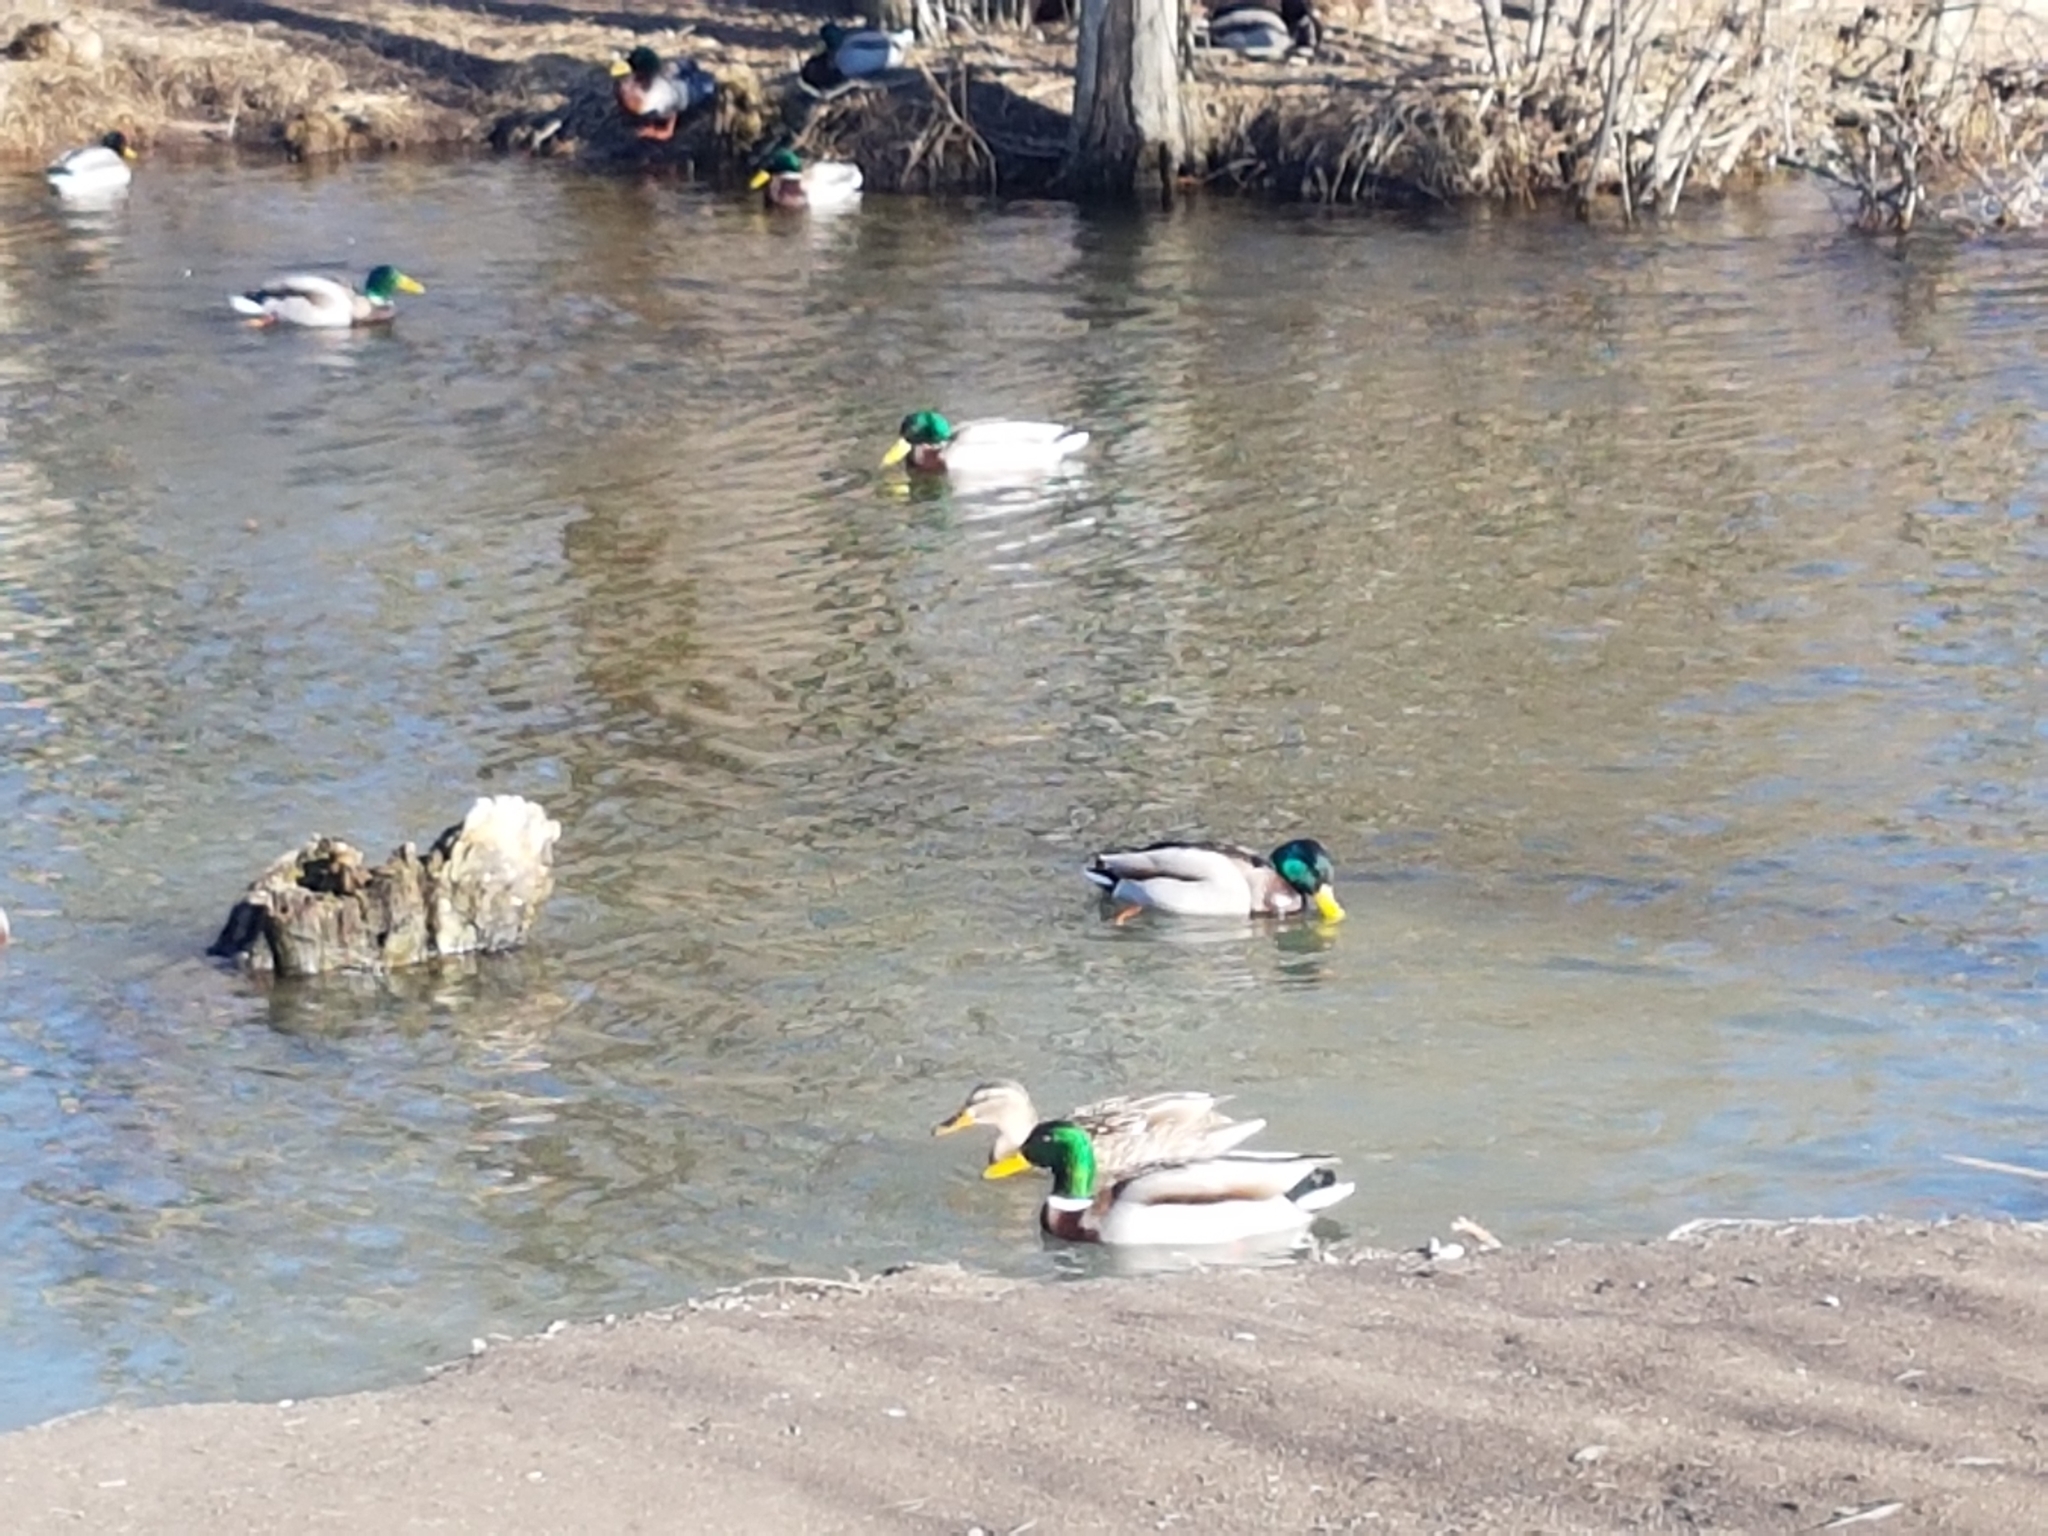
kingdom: Animalia
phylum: Chordata
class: Aves
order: Anseriformes
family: Anatidae
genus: Anas
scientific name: Anas platyrhynchos
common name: Mallard
